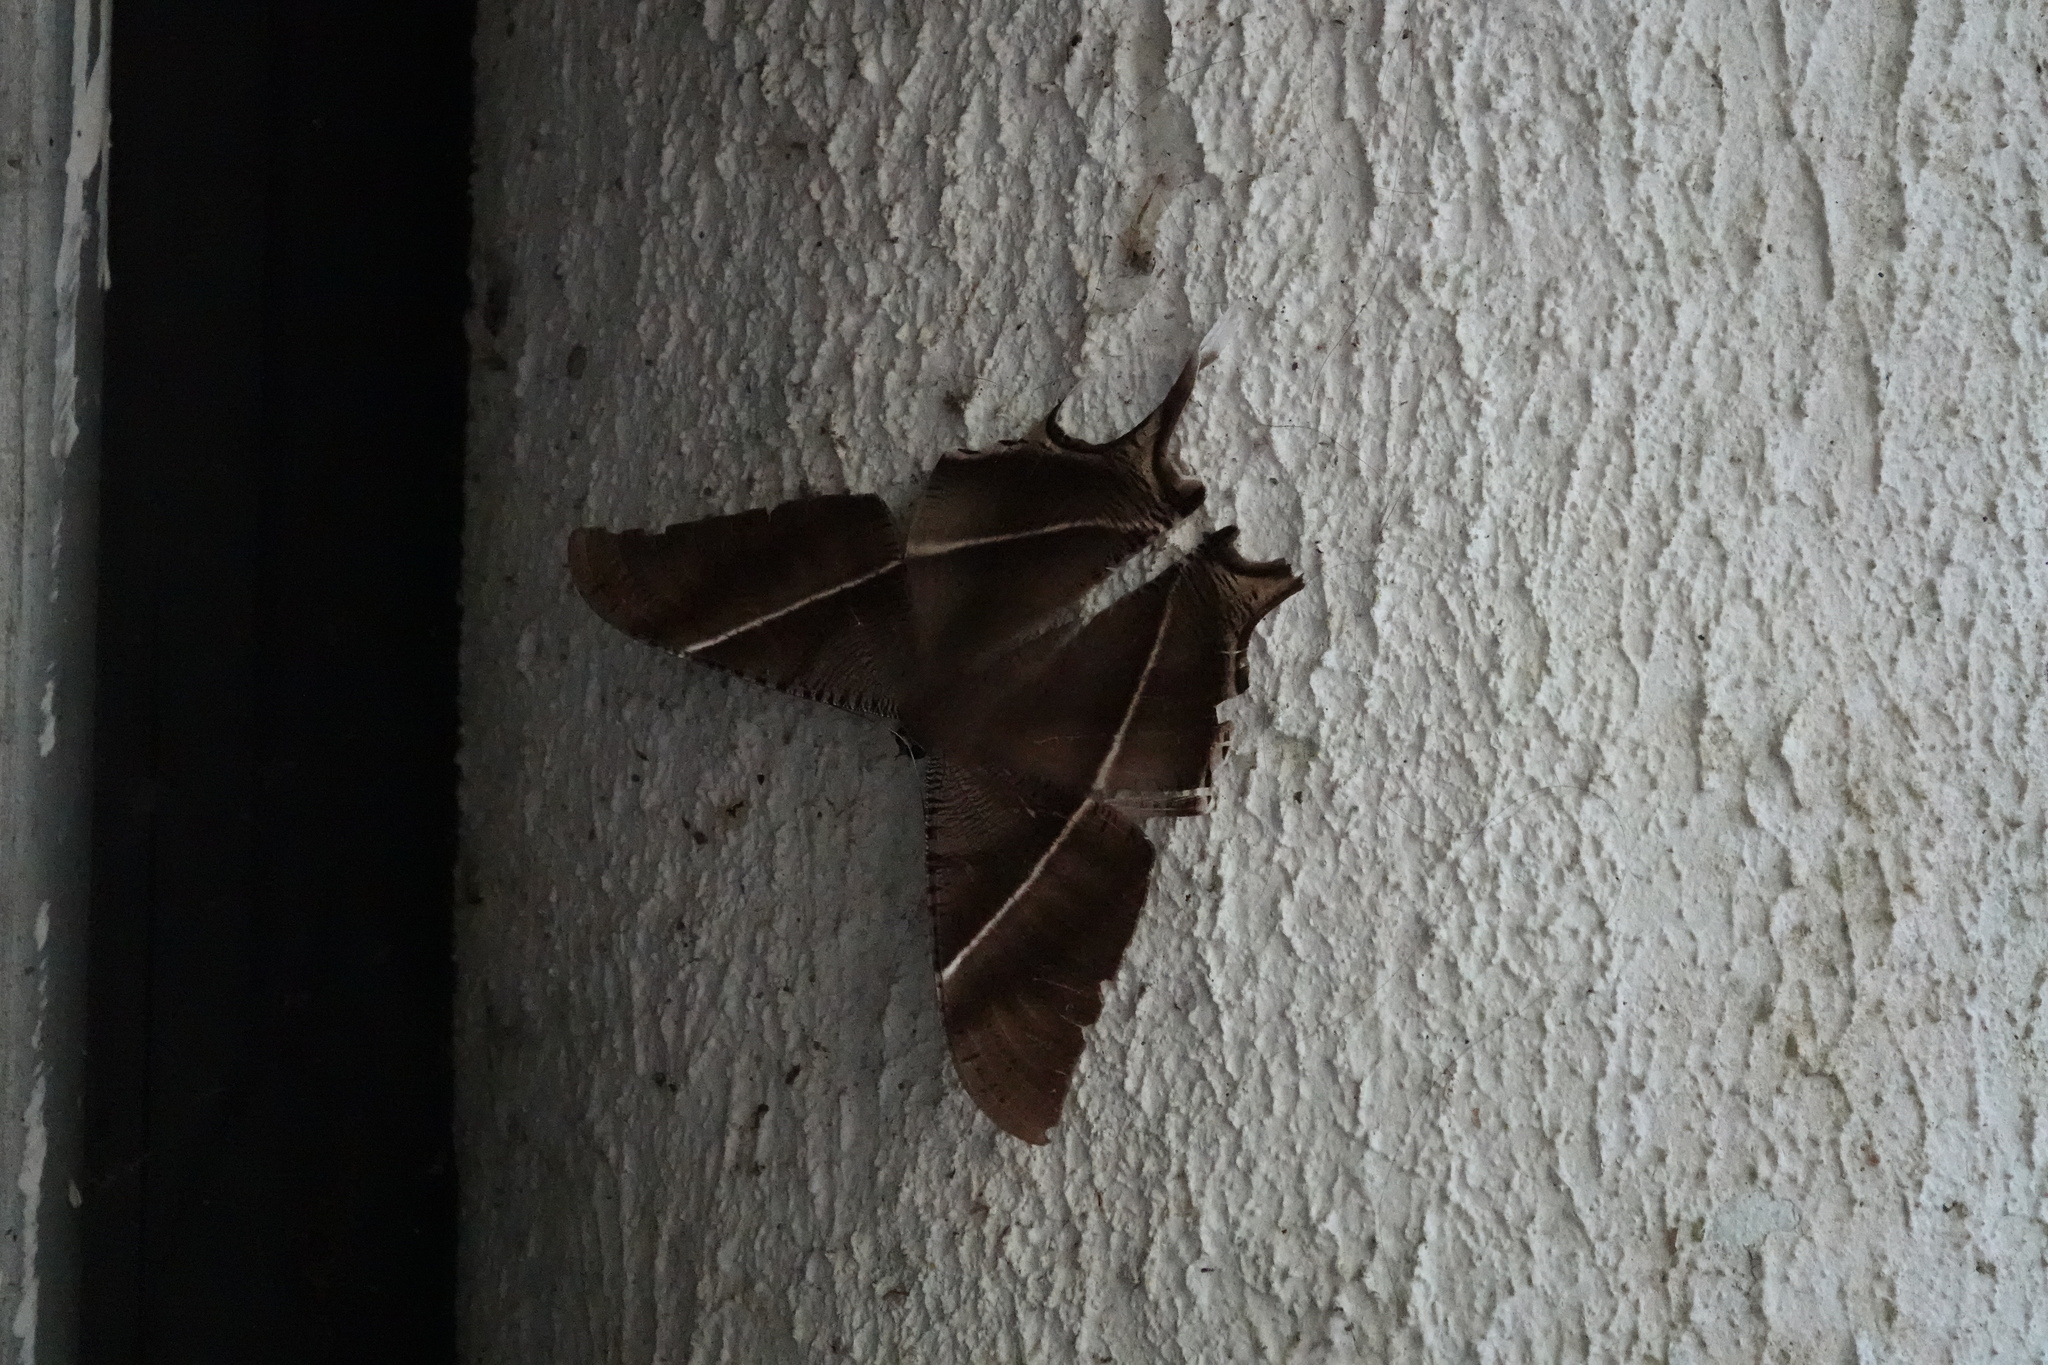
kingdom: Animalia
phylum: Arthropoda
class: Insecta
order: Lepidoptera
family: Uraniidae
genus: Lyssa
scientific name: Lyssa zampa
